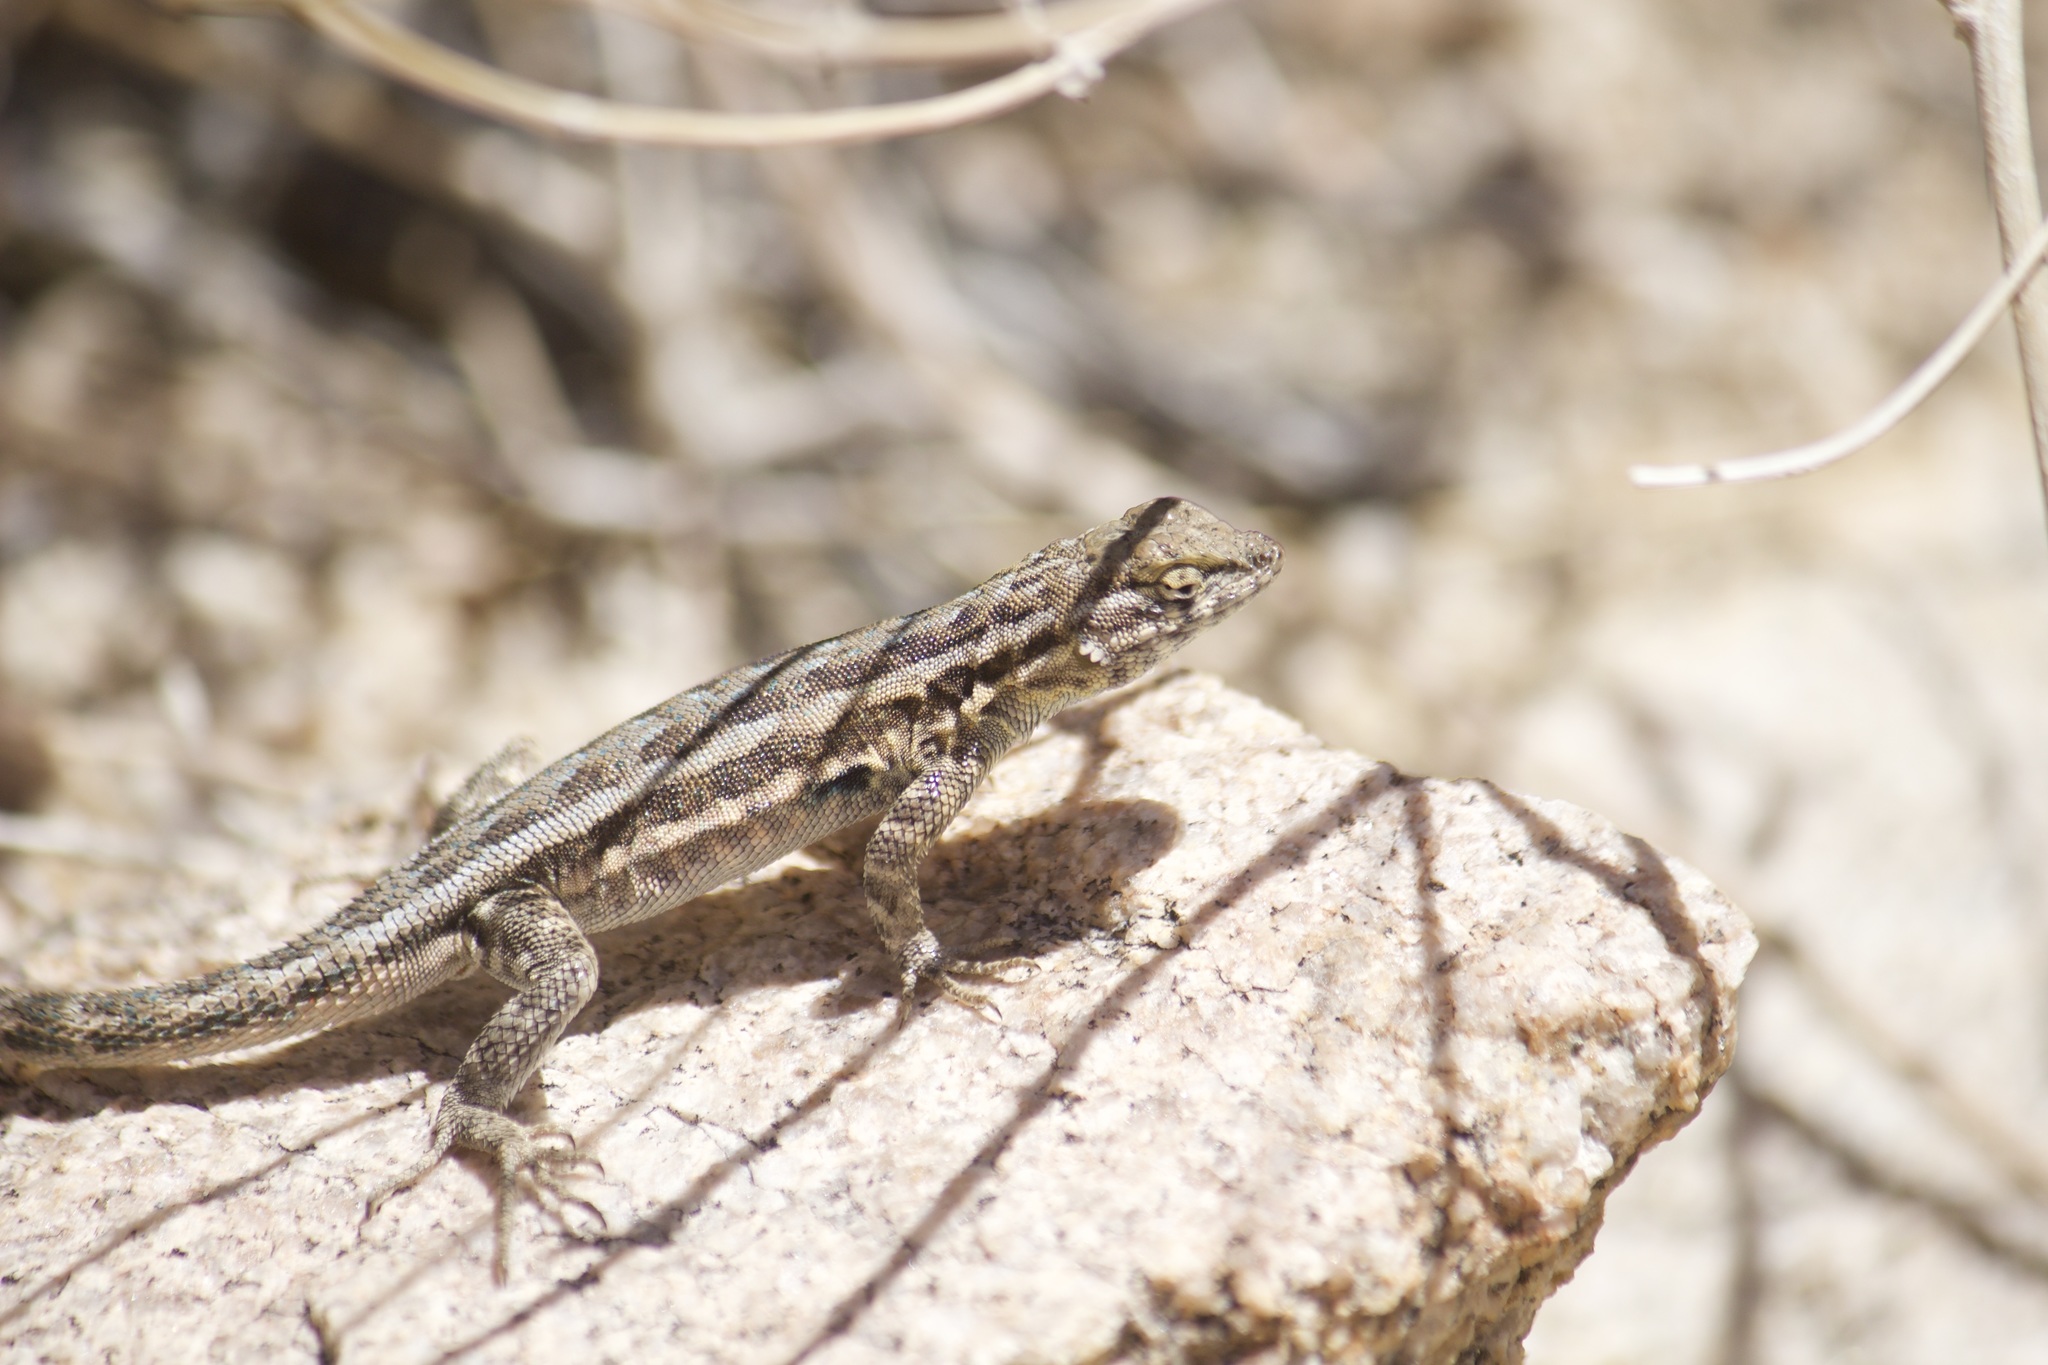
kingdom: Animalia
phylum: Chordata
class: Squamata
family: Phrynosomatidae
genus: Uta
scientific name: Uta stansburiana
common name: Side-blotched lizard
